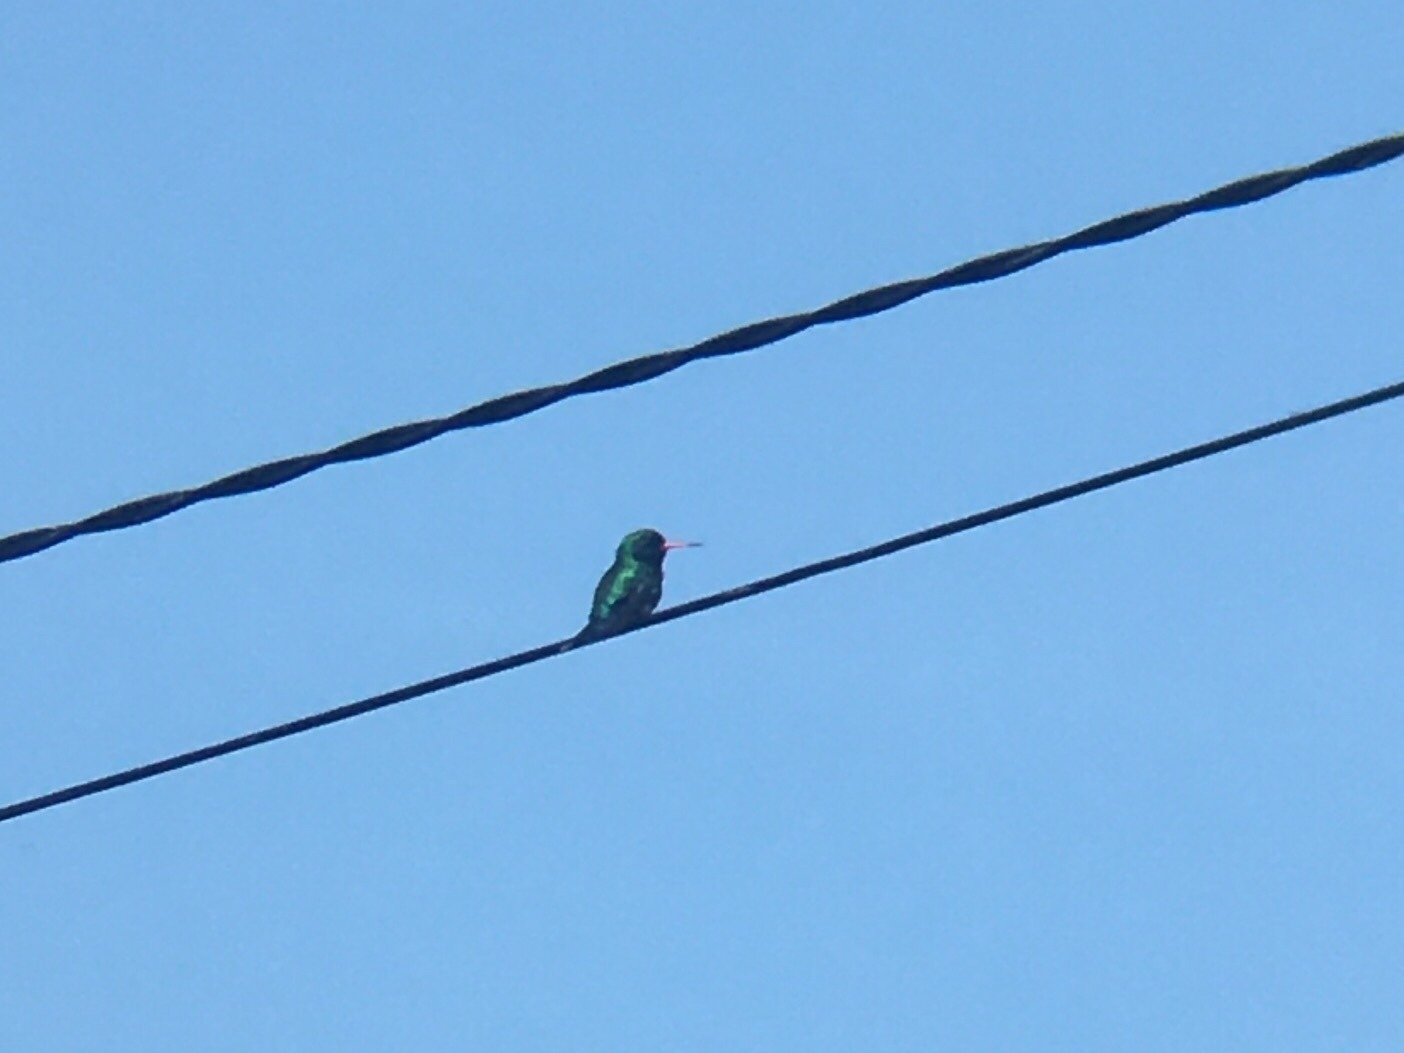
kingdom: Animalia
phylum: Chordata
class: Aves
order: Apodiformes
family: Trochilidae
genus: Chlorostilbon
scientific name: Chlorostilbon lucidus
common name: Glittering-bellied emerald
